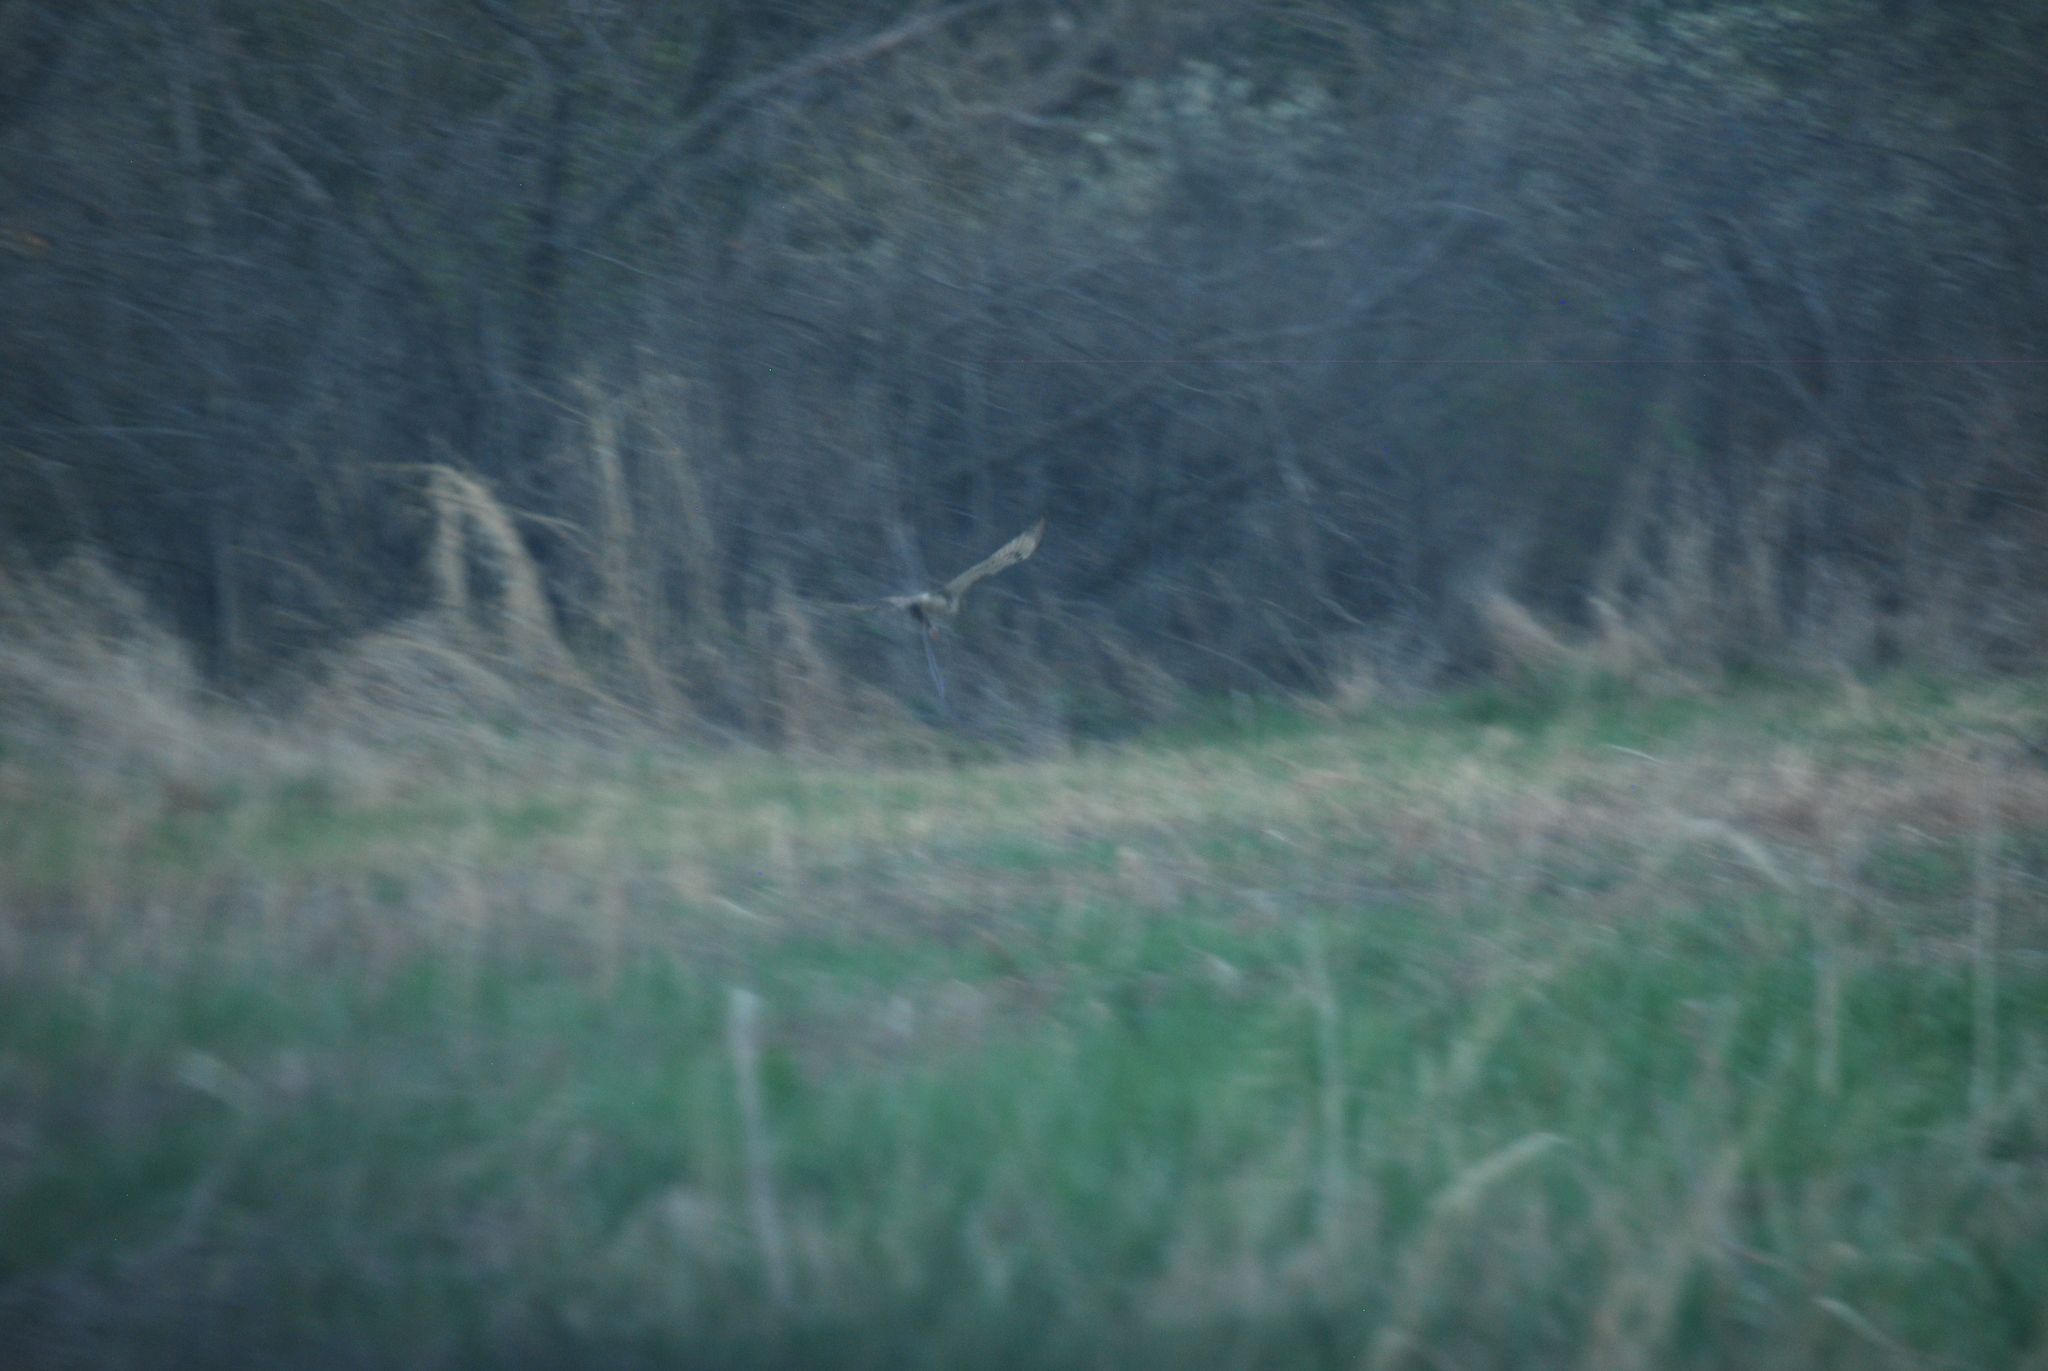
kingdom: Animalia
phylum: Chordata
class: Aves
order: Accipitriformes
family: Accipitridae
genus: Buteo
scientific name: Buteo jamaicensis
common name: Red-tailed hawk
